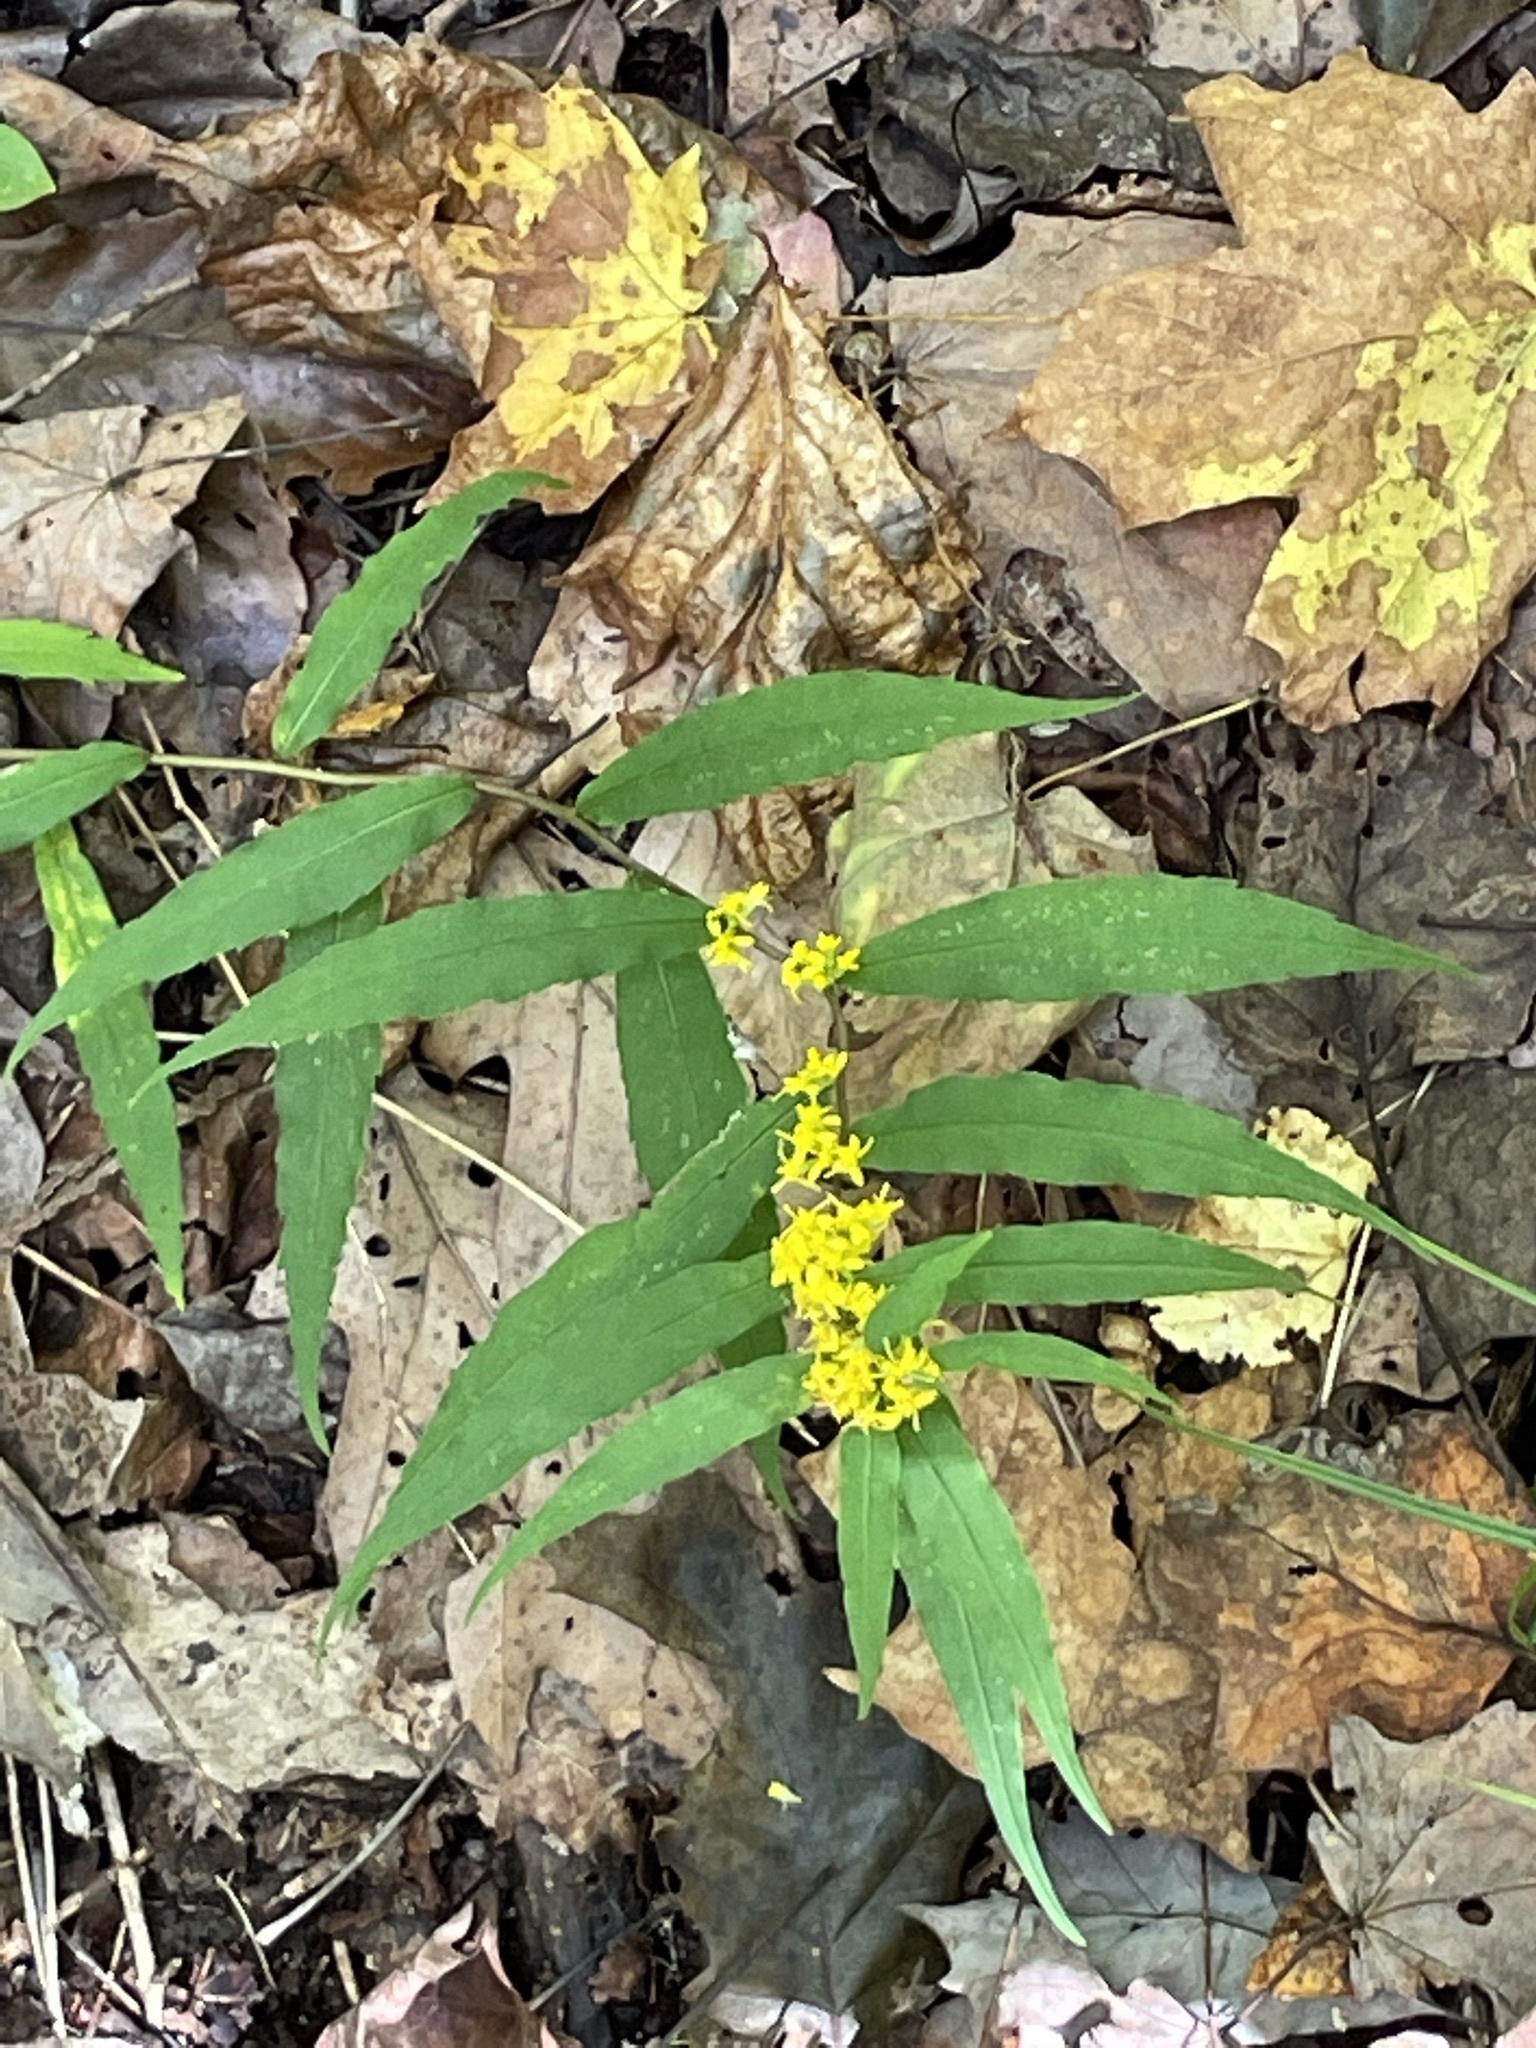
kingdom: Plantae
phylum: Tracheophyta
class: Magnoliopsida
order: Asterales
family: Asteraceae
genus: Solidago
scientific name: Solidago caesia
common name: Woodland goldenrod
